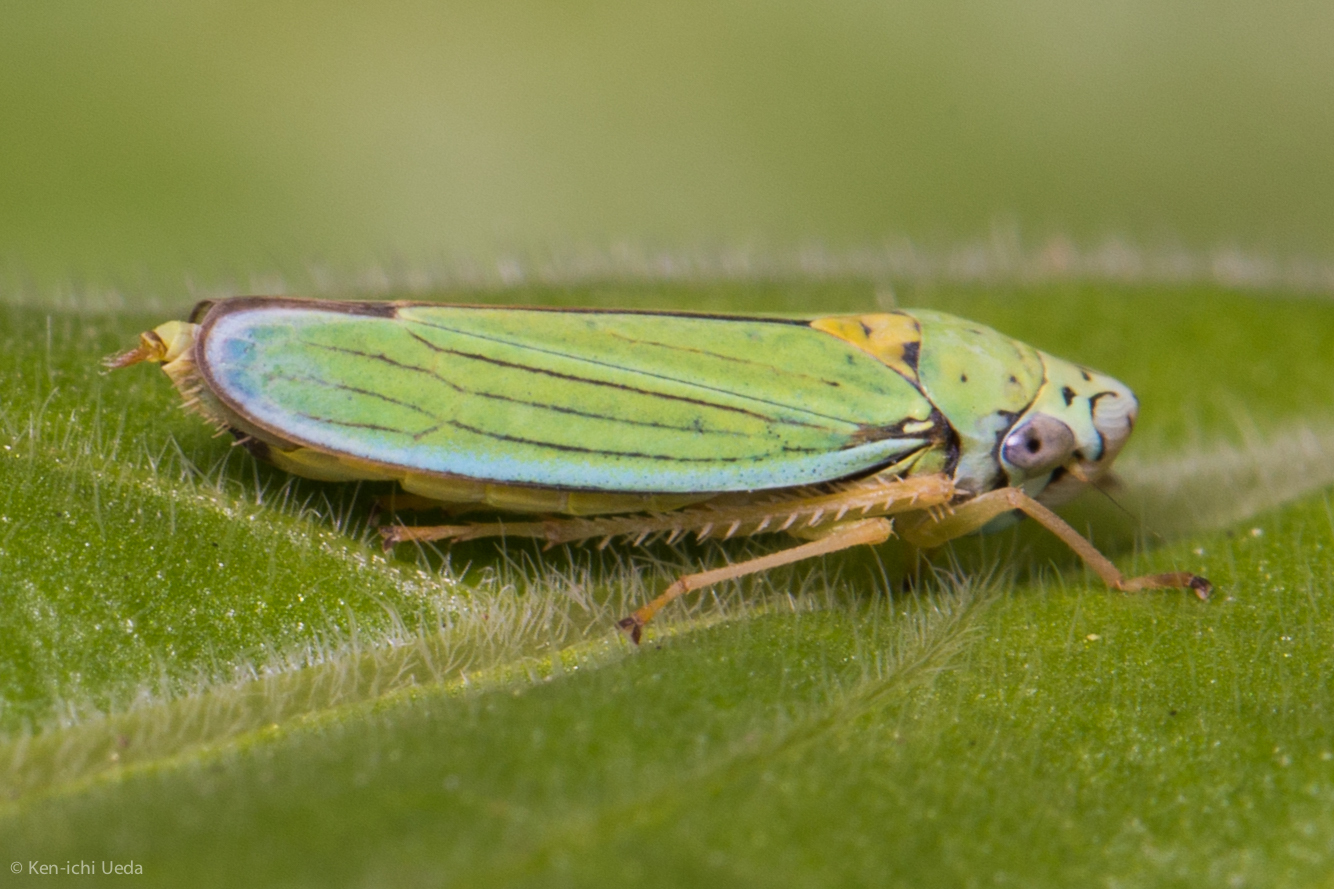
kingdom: Animalia
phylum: Arthropoda
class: Insecta
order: Hemiptera
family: Cicadellidae
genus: Graphocephala
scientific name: Graphocephala atropunctata
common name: Blue-green sharpshooter
